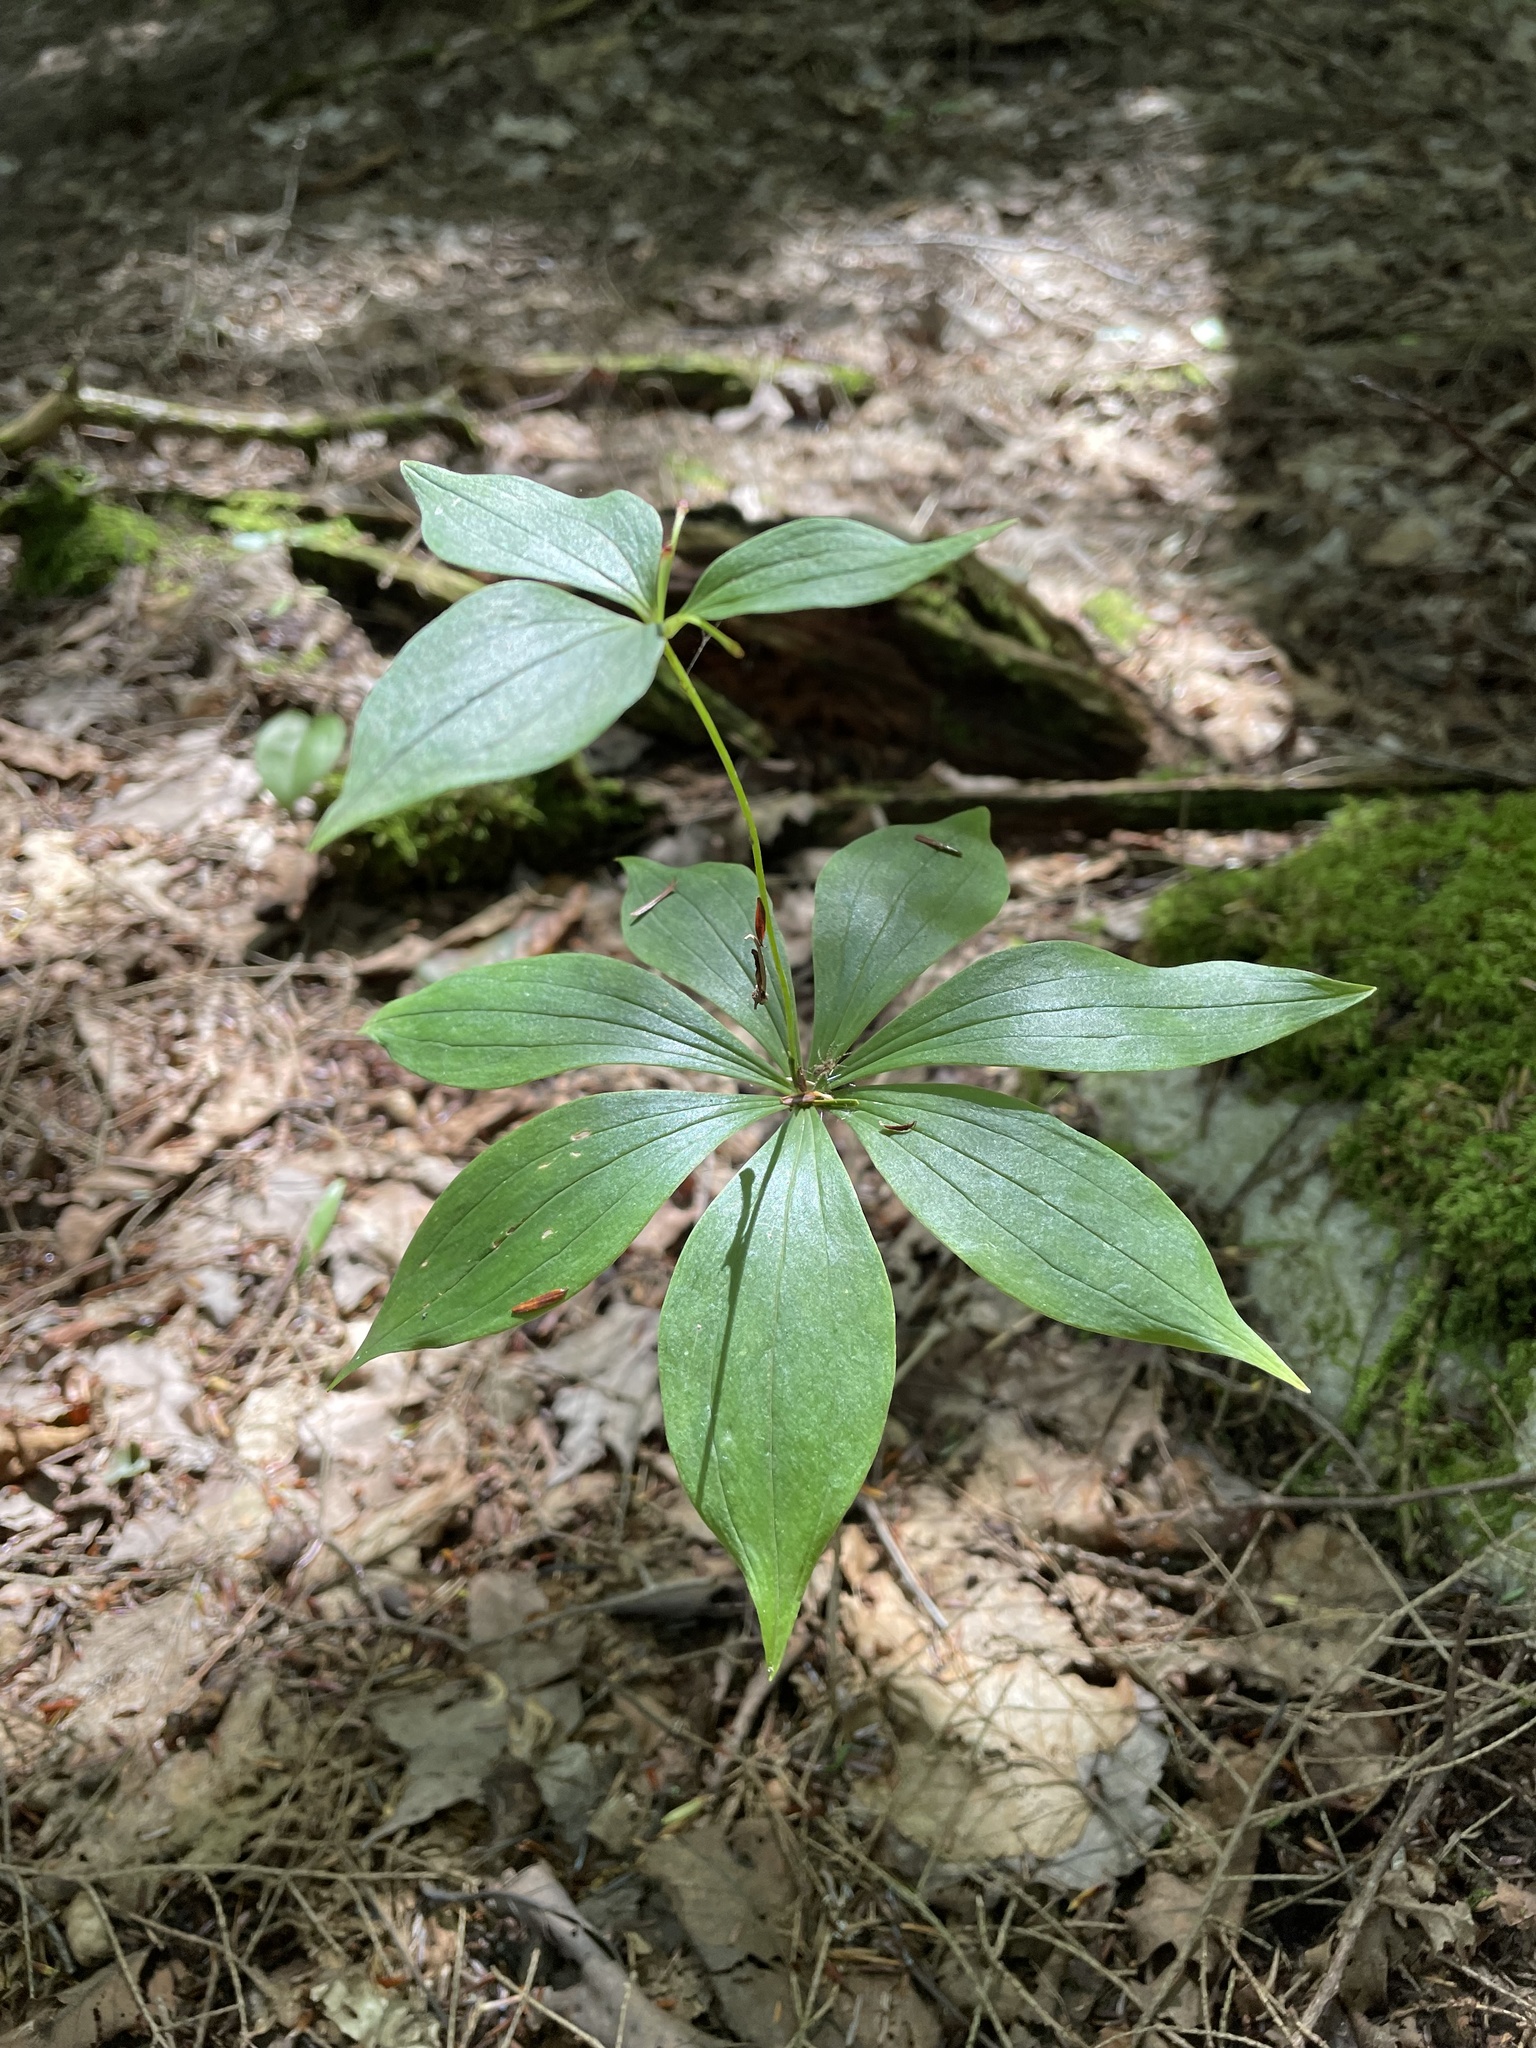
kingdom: Plantae
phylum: Tracheophyta
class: Liliopsida
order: Liliales
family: Liliaceae
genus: Medeola
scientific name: Medeola virginiana
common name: Indian cucumber-root
